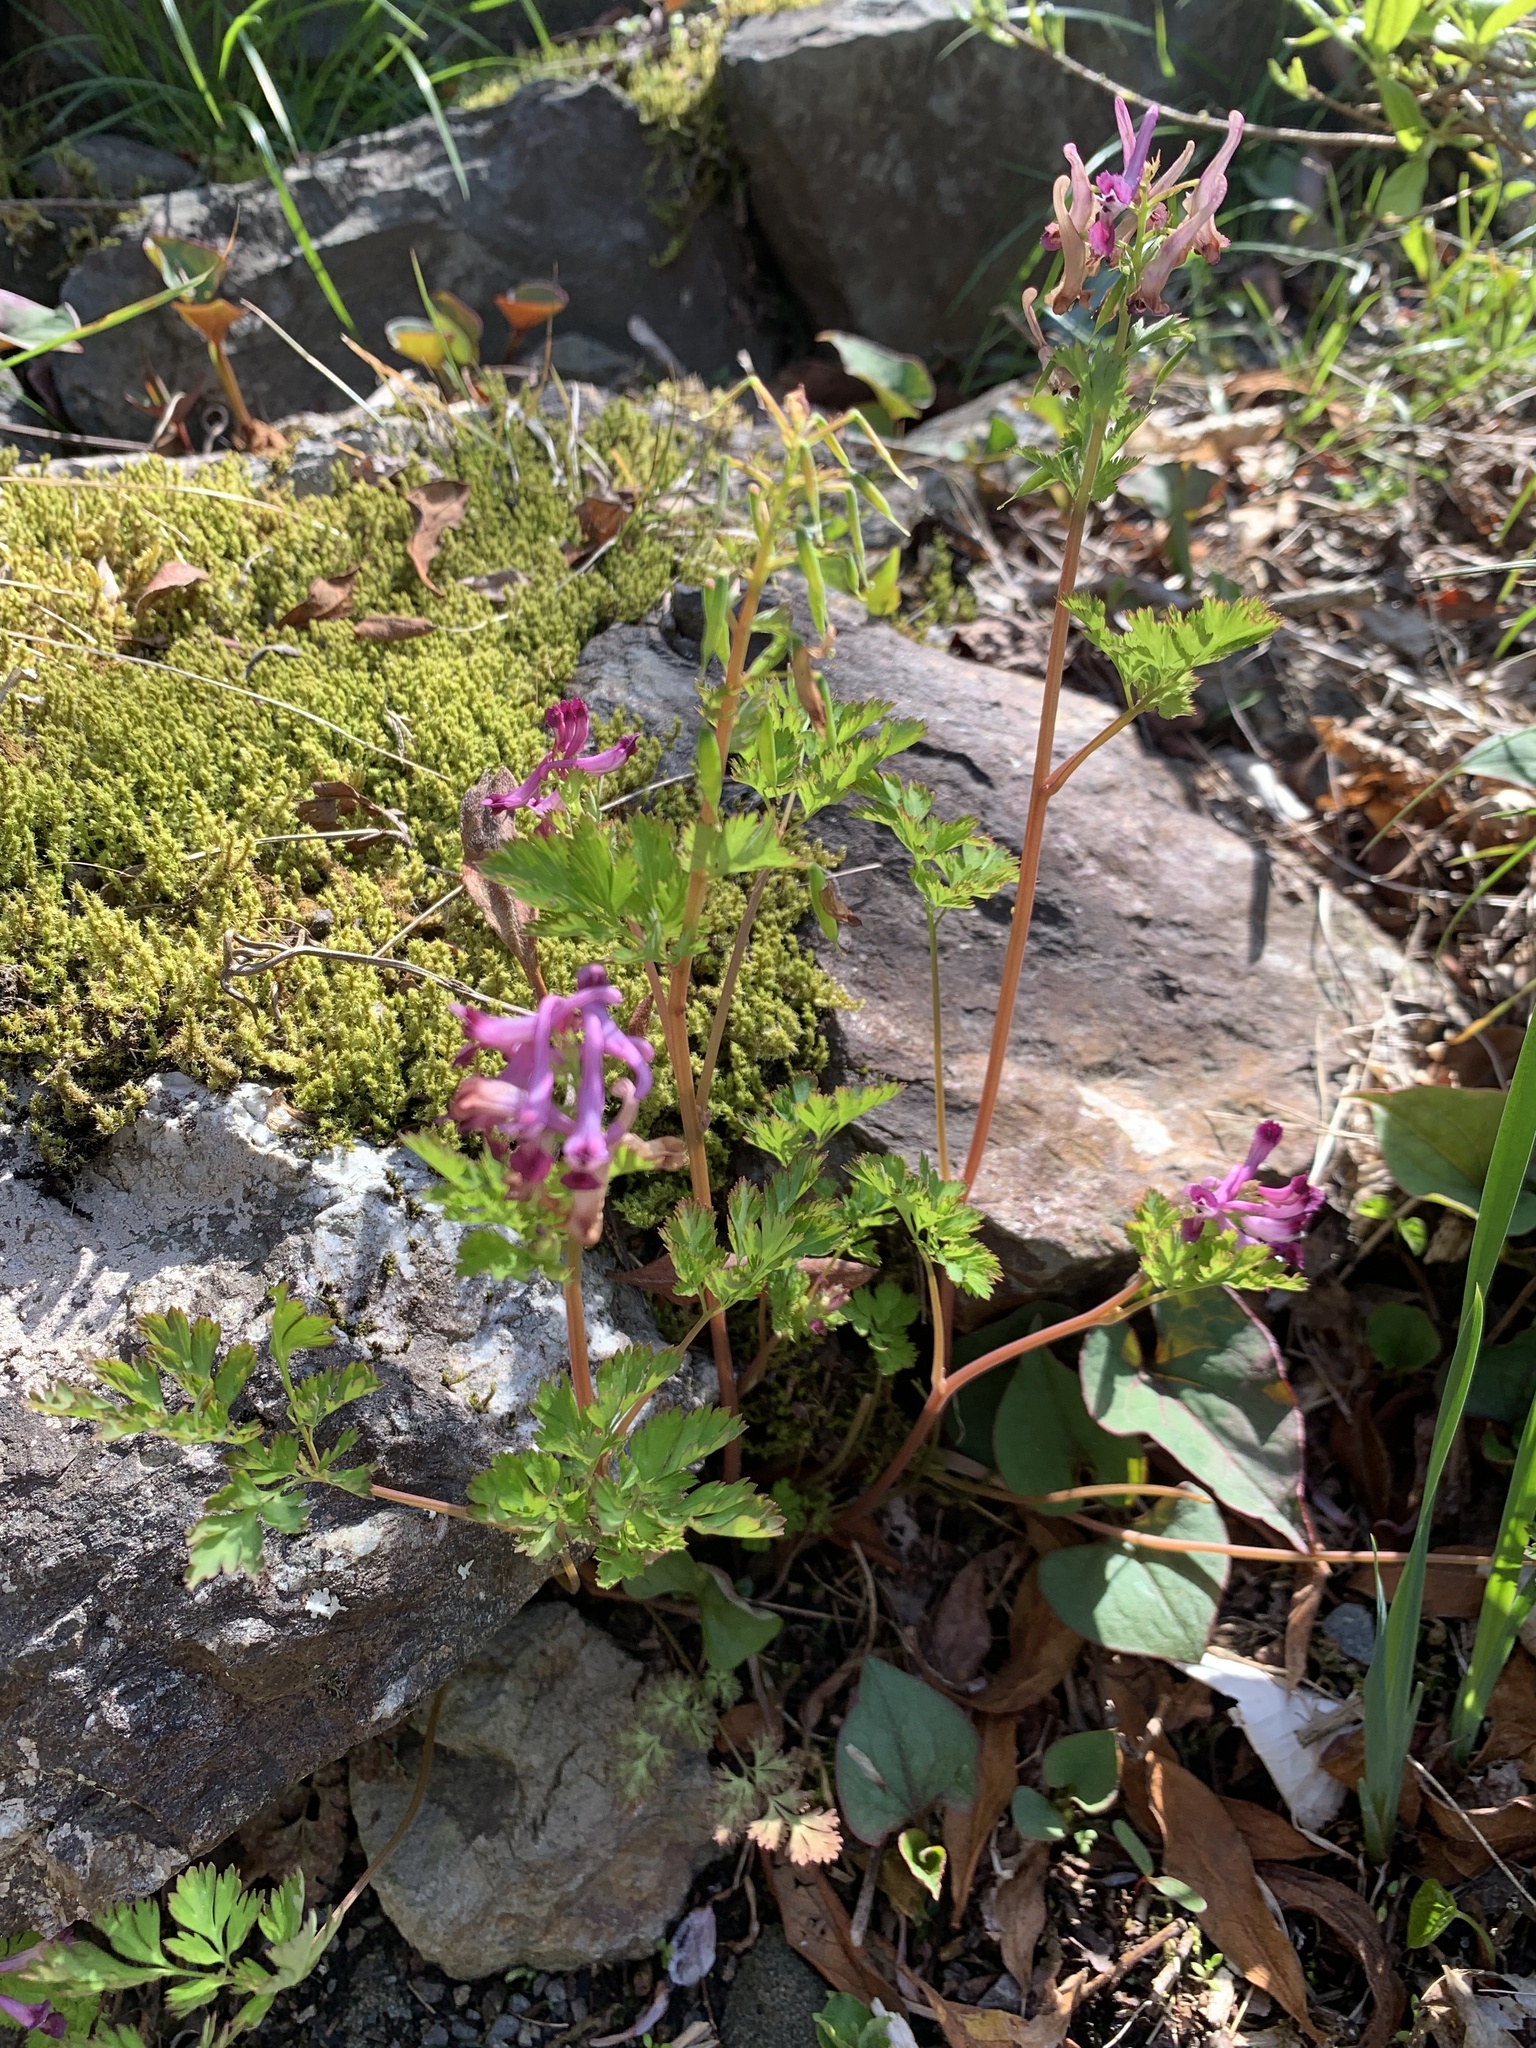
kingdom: Plantae
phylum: Tracheophyta
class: Magnoliopsida
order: Ranunculales
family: Papaveraceae
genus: Corydalis
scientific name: Corydalis incisa
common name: Incised fumewort
